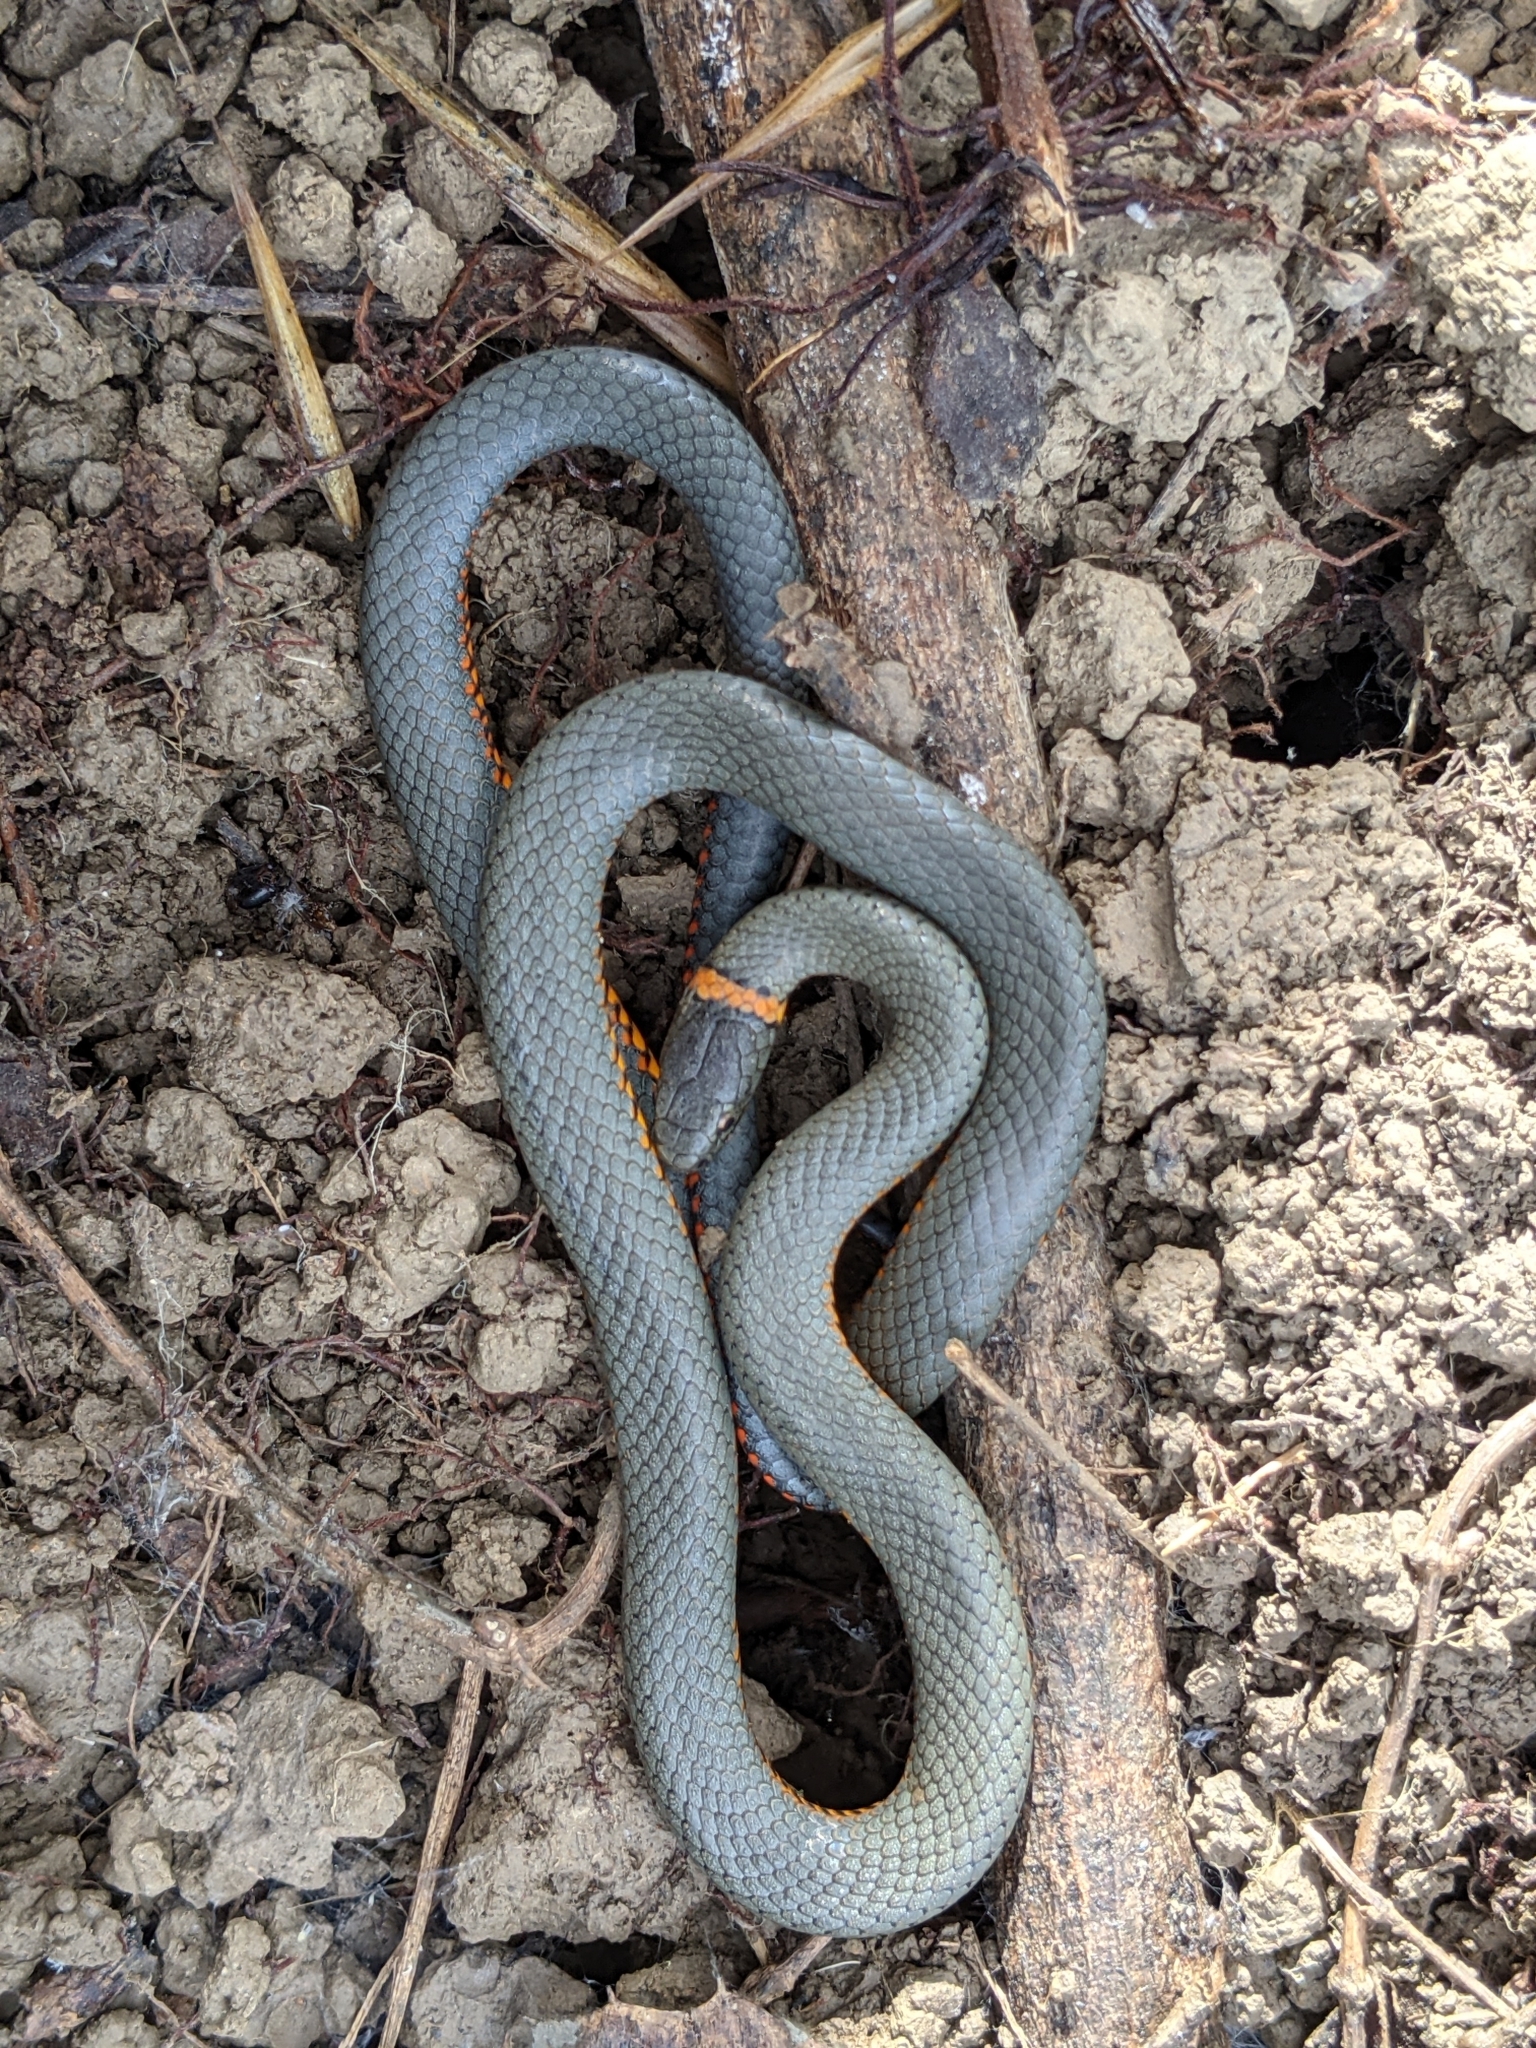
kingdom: Animalia
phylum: Chordata
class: Squamata
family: Colubridae
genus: Diadophis
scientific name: Diadophis punctatus
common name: Ringneck snake
